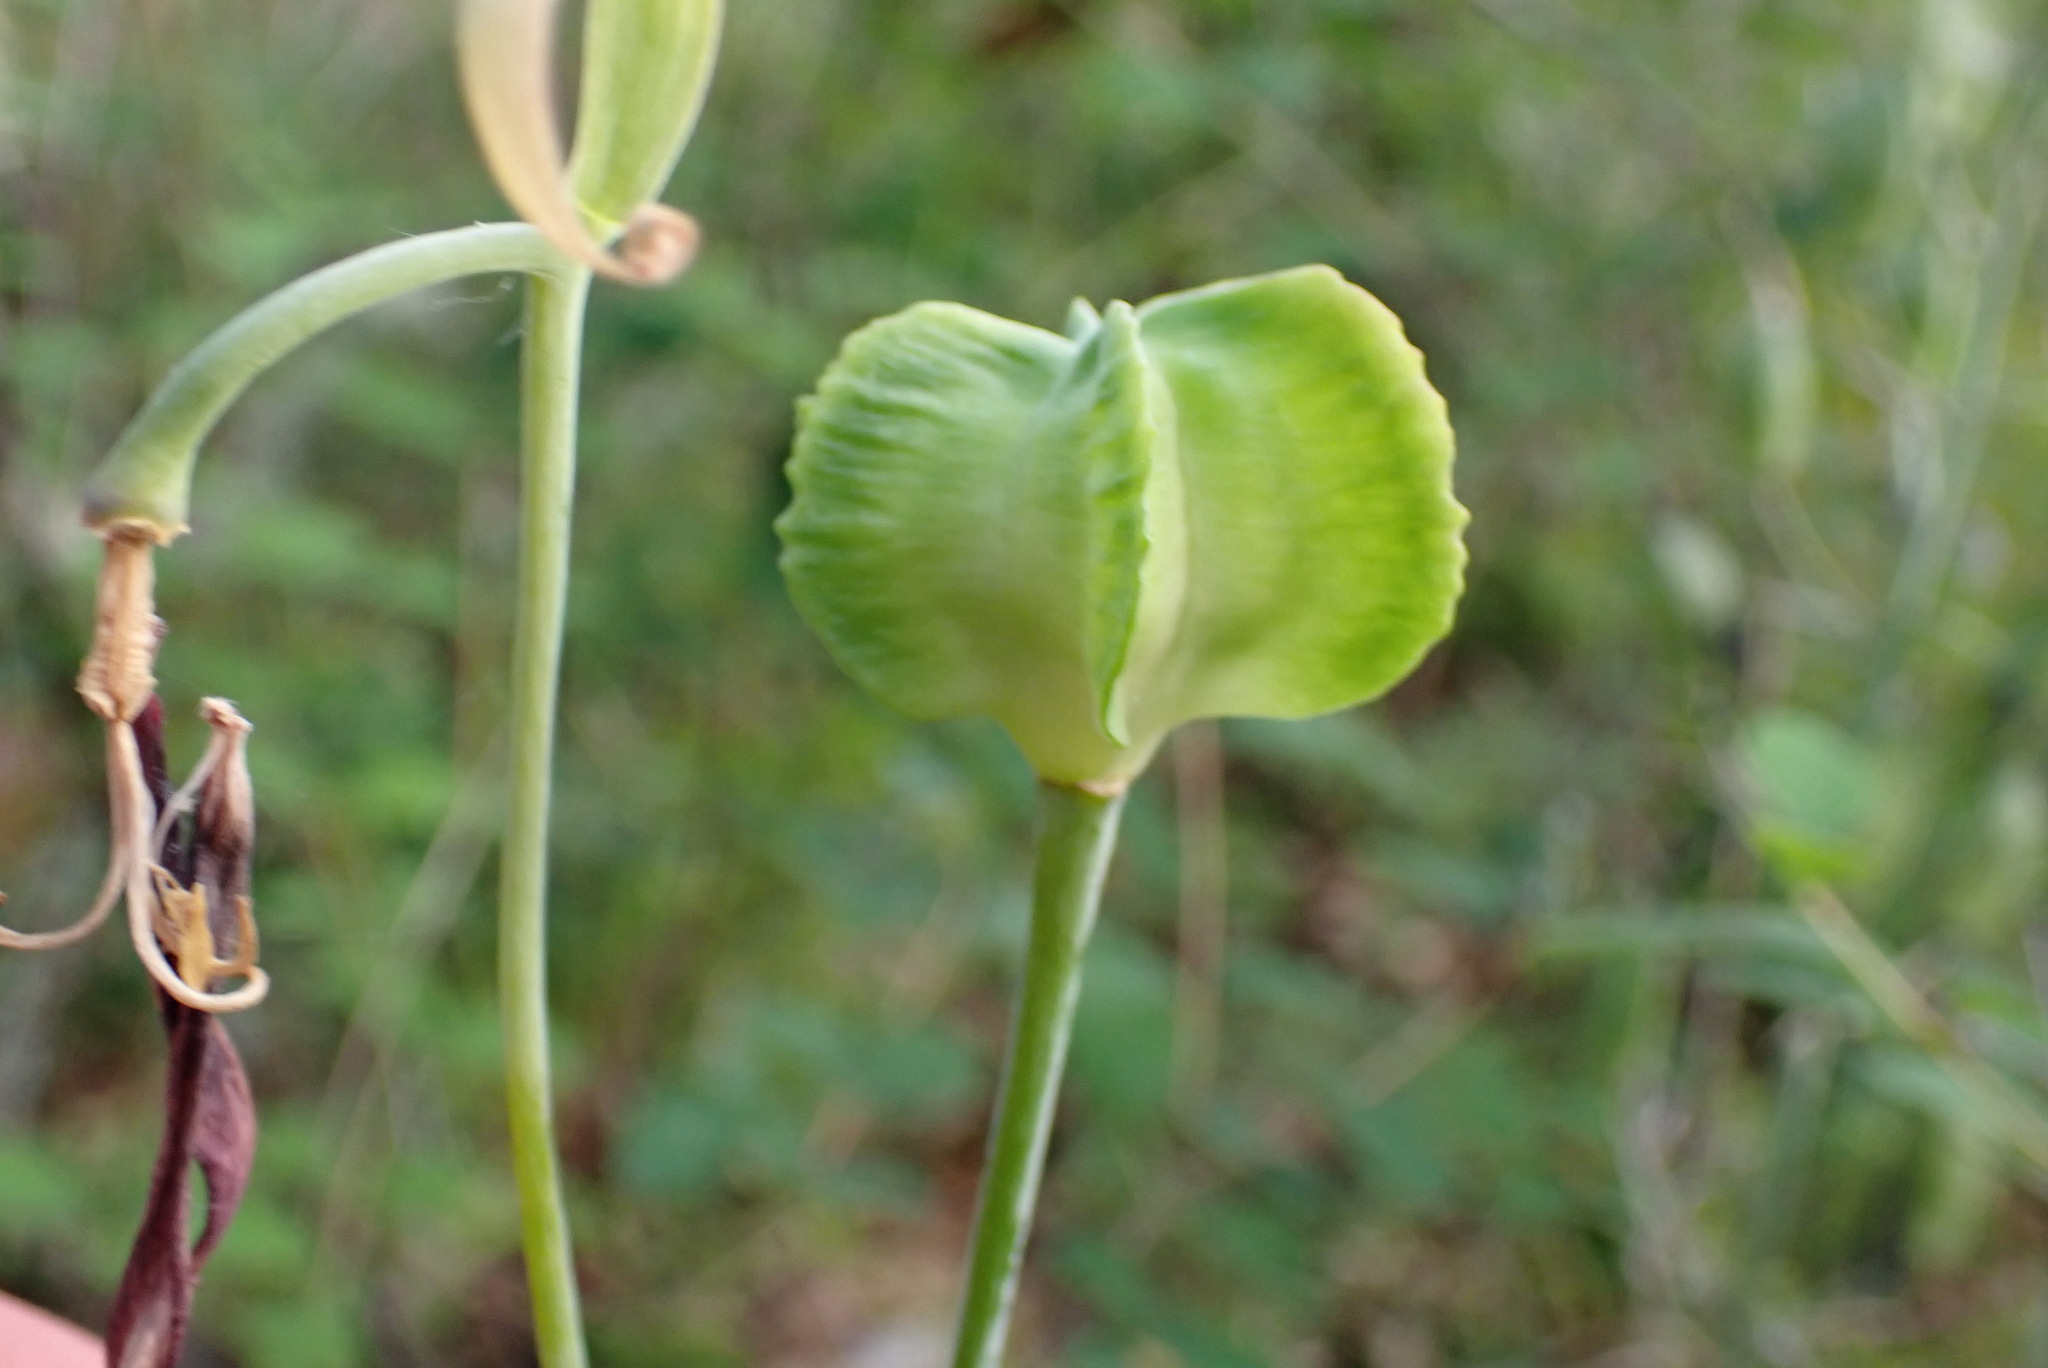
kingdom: Plantae
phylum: Tracheophyta
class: Liliopsida
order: Liliales
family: Liliaceae
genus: Fritillaria
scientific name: Fritillaria affinis
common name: Ojai fritillary
